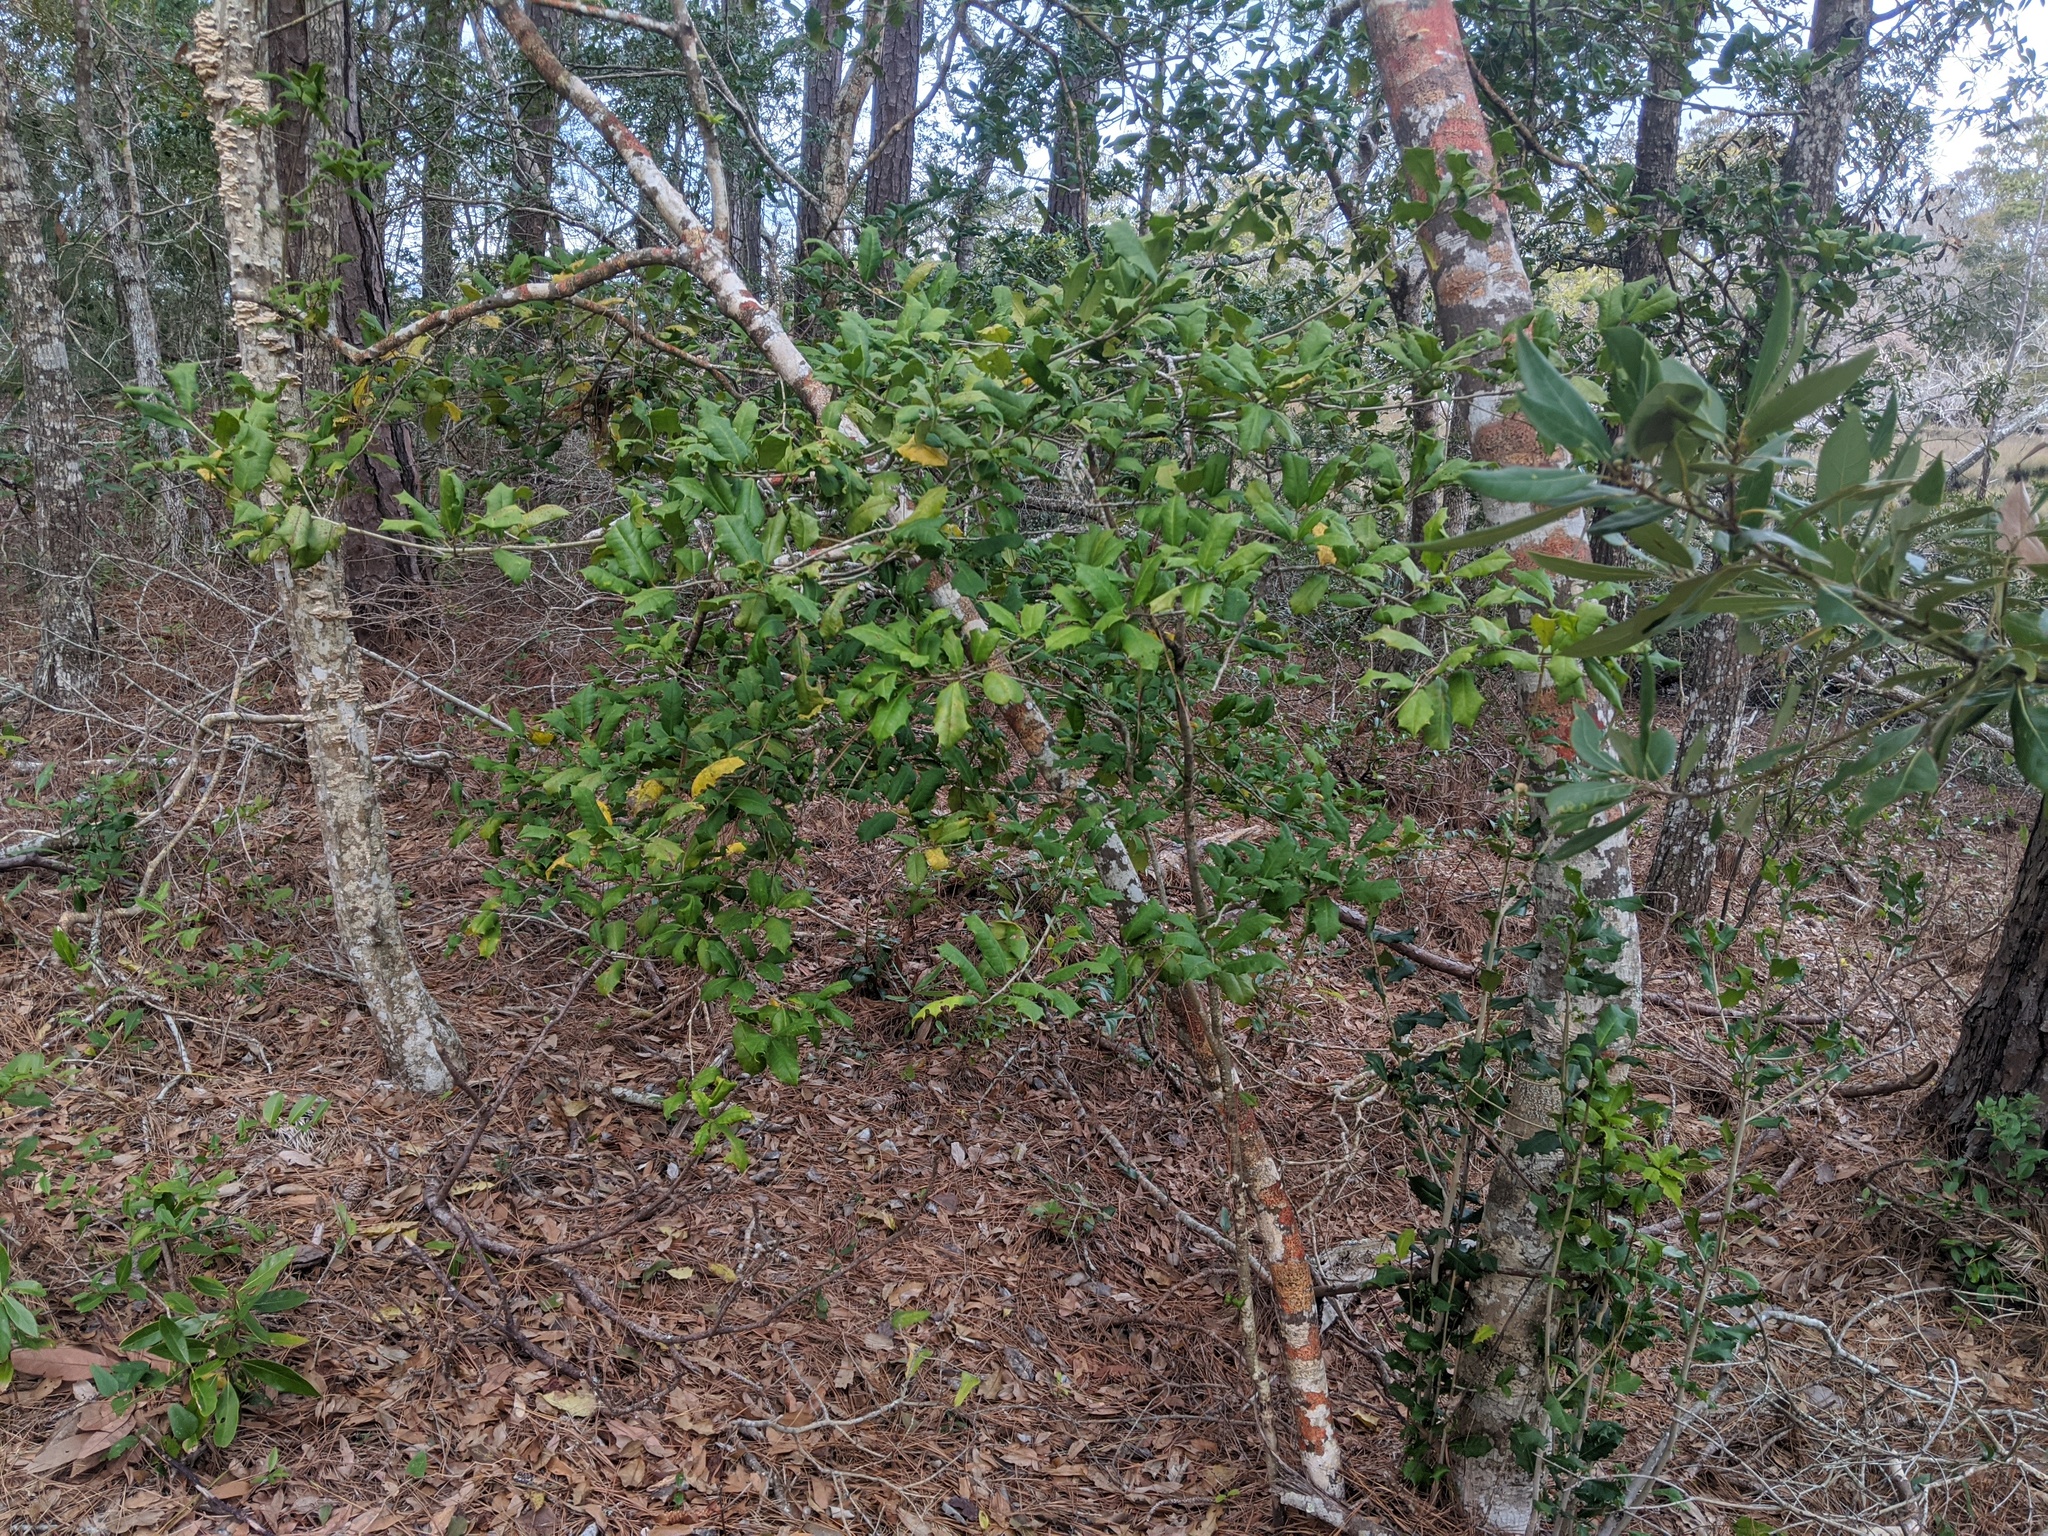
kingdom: Plantae
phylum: Tracheophyta
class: Magnoliopsida
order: Aquifoliales
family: Aquifoliaceae
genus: Ilex
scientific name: Ilex opaca
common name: American holly
